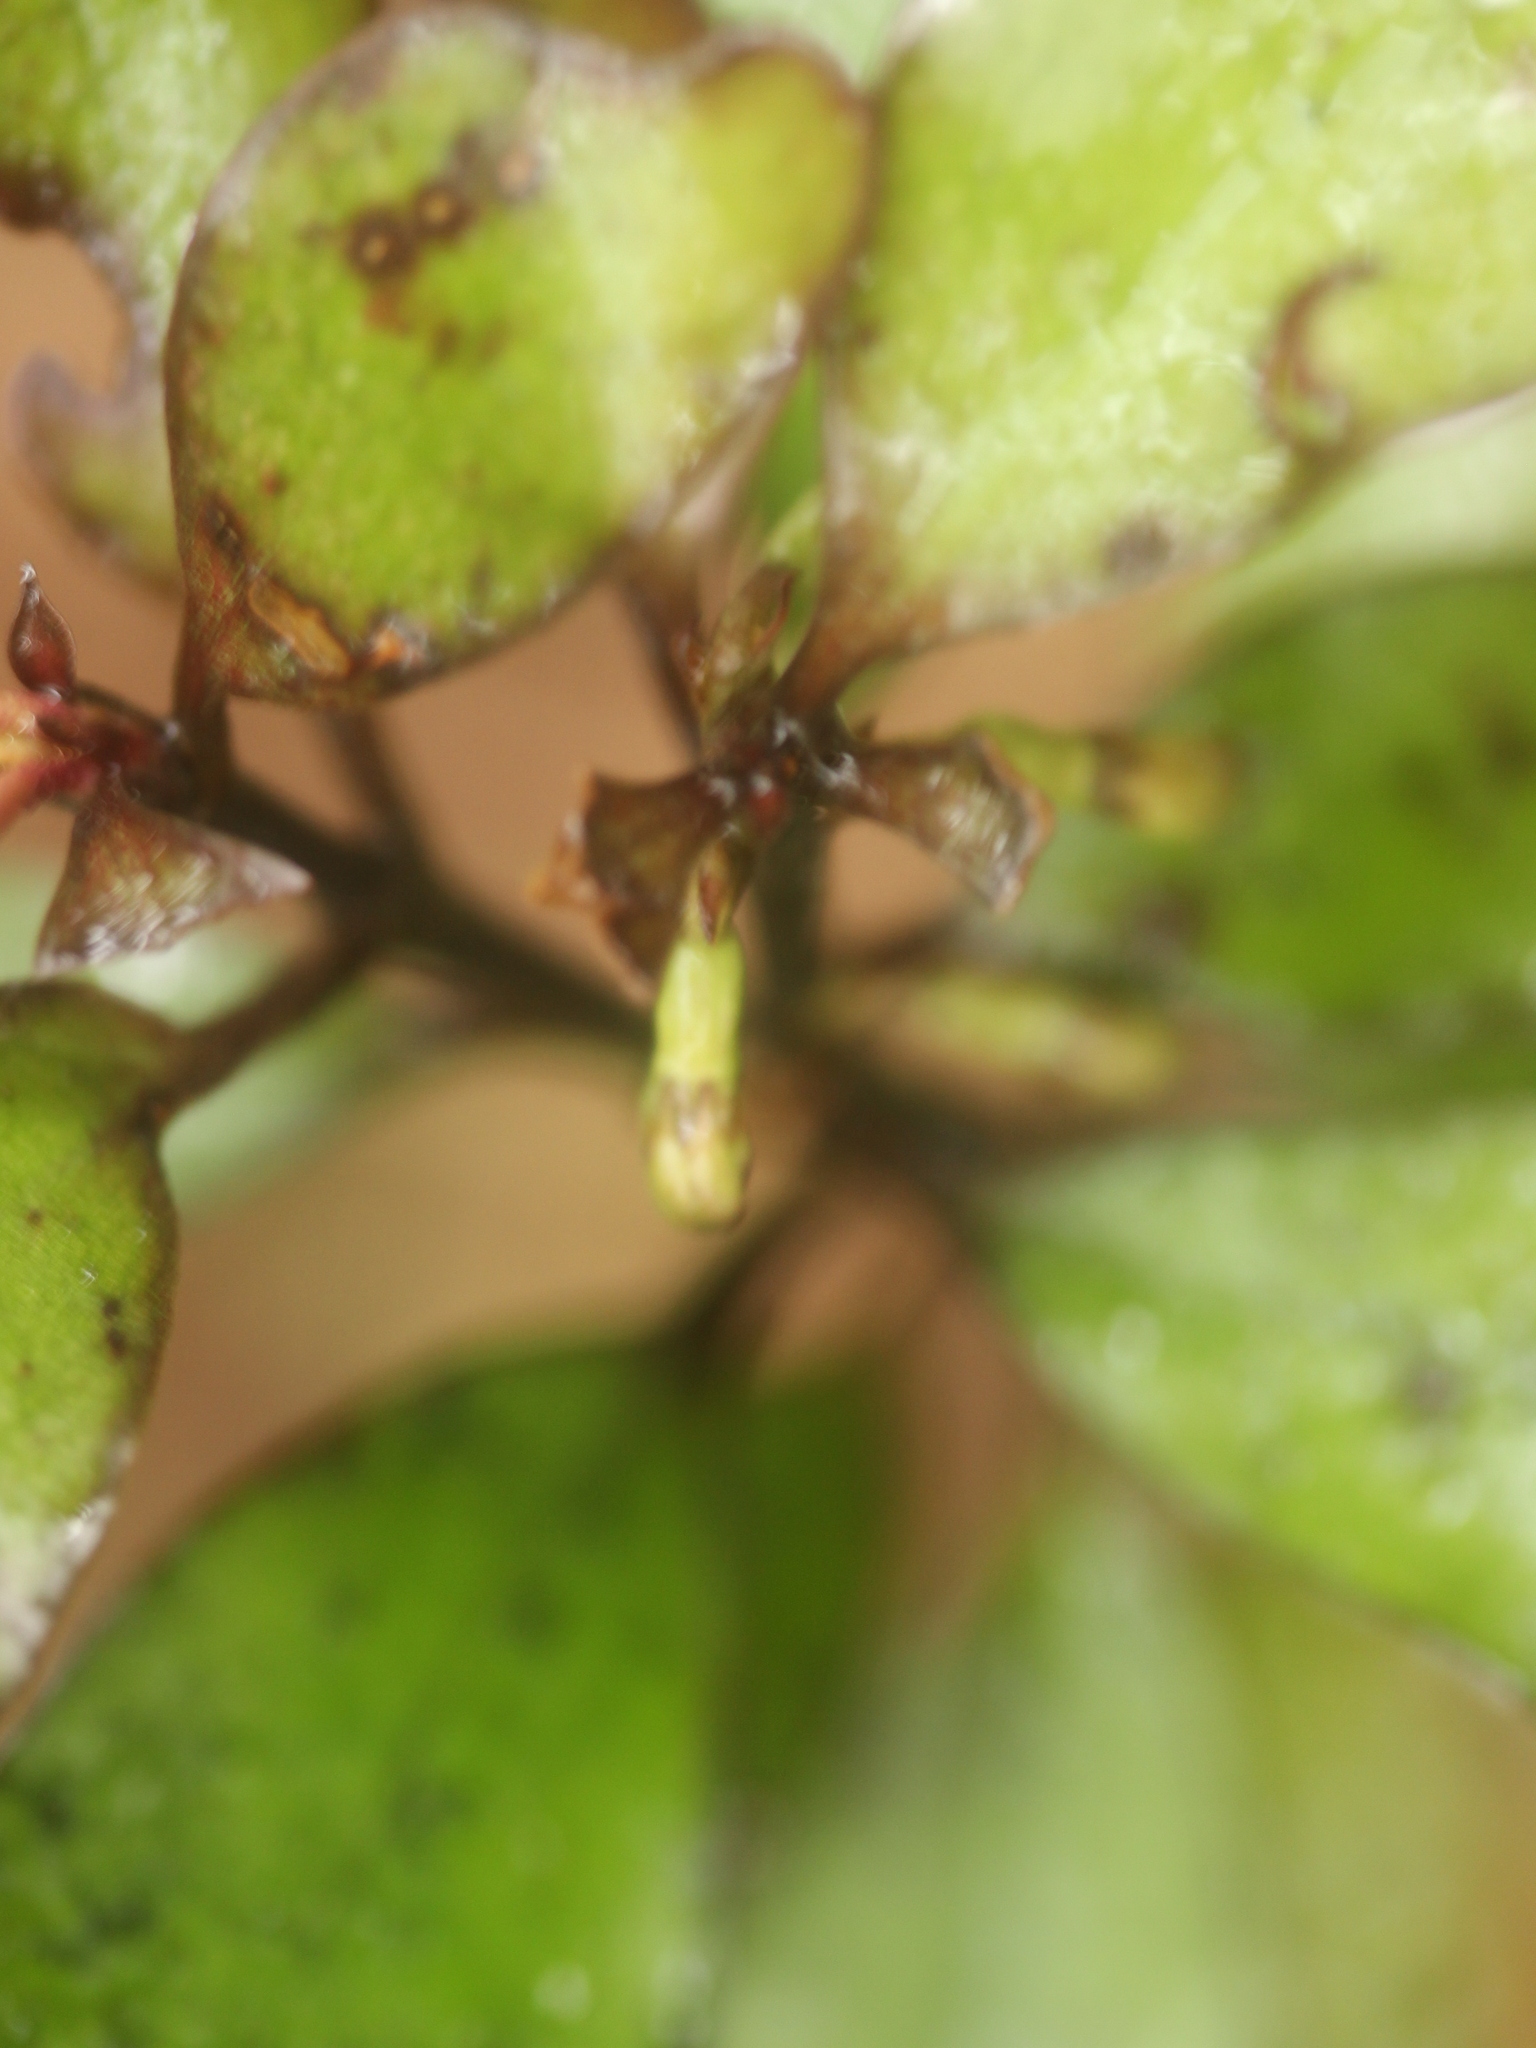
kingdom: Plantae
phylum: Tracheophyta
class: Magnoliopsida
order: Asterales
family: Alseuosmiaceae
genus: Alseuosmia
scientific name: Alseuosmia pusilla
